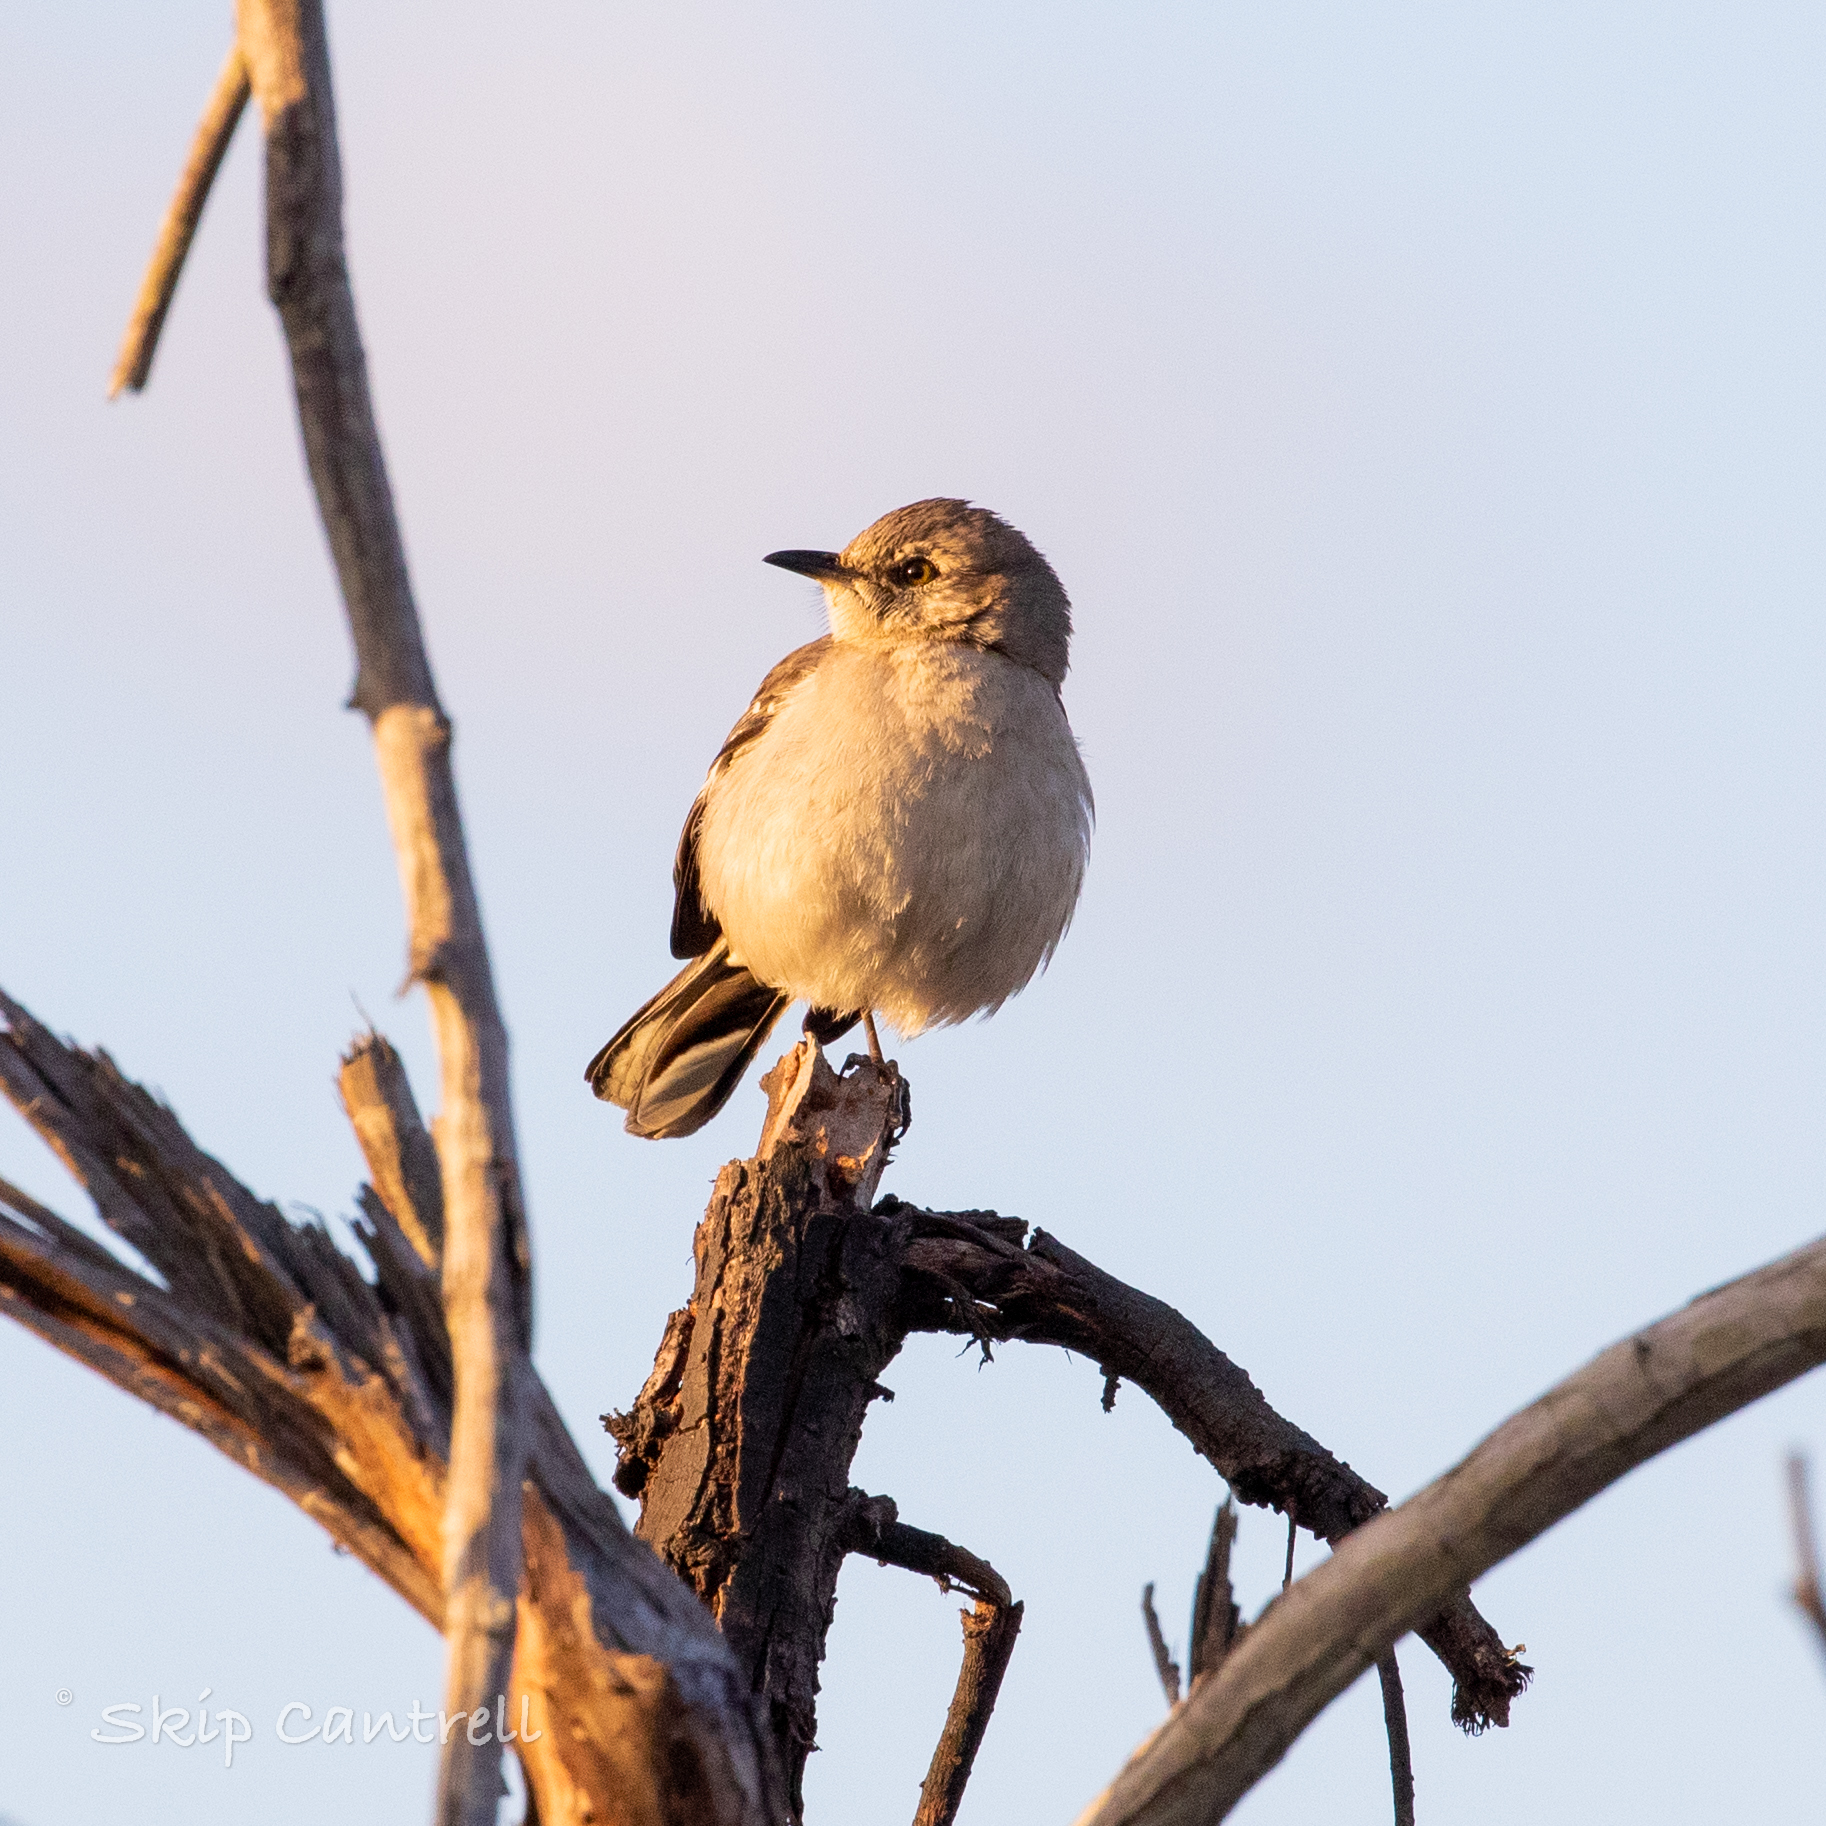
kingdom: Animalia
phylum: Chordata
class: Aves
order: Passeriformes
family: Mimidae
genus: Mimus
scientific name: Mimus polyglottos
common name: Northern mockingbird
